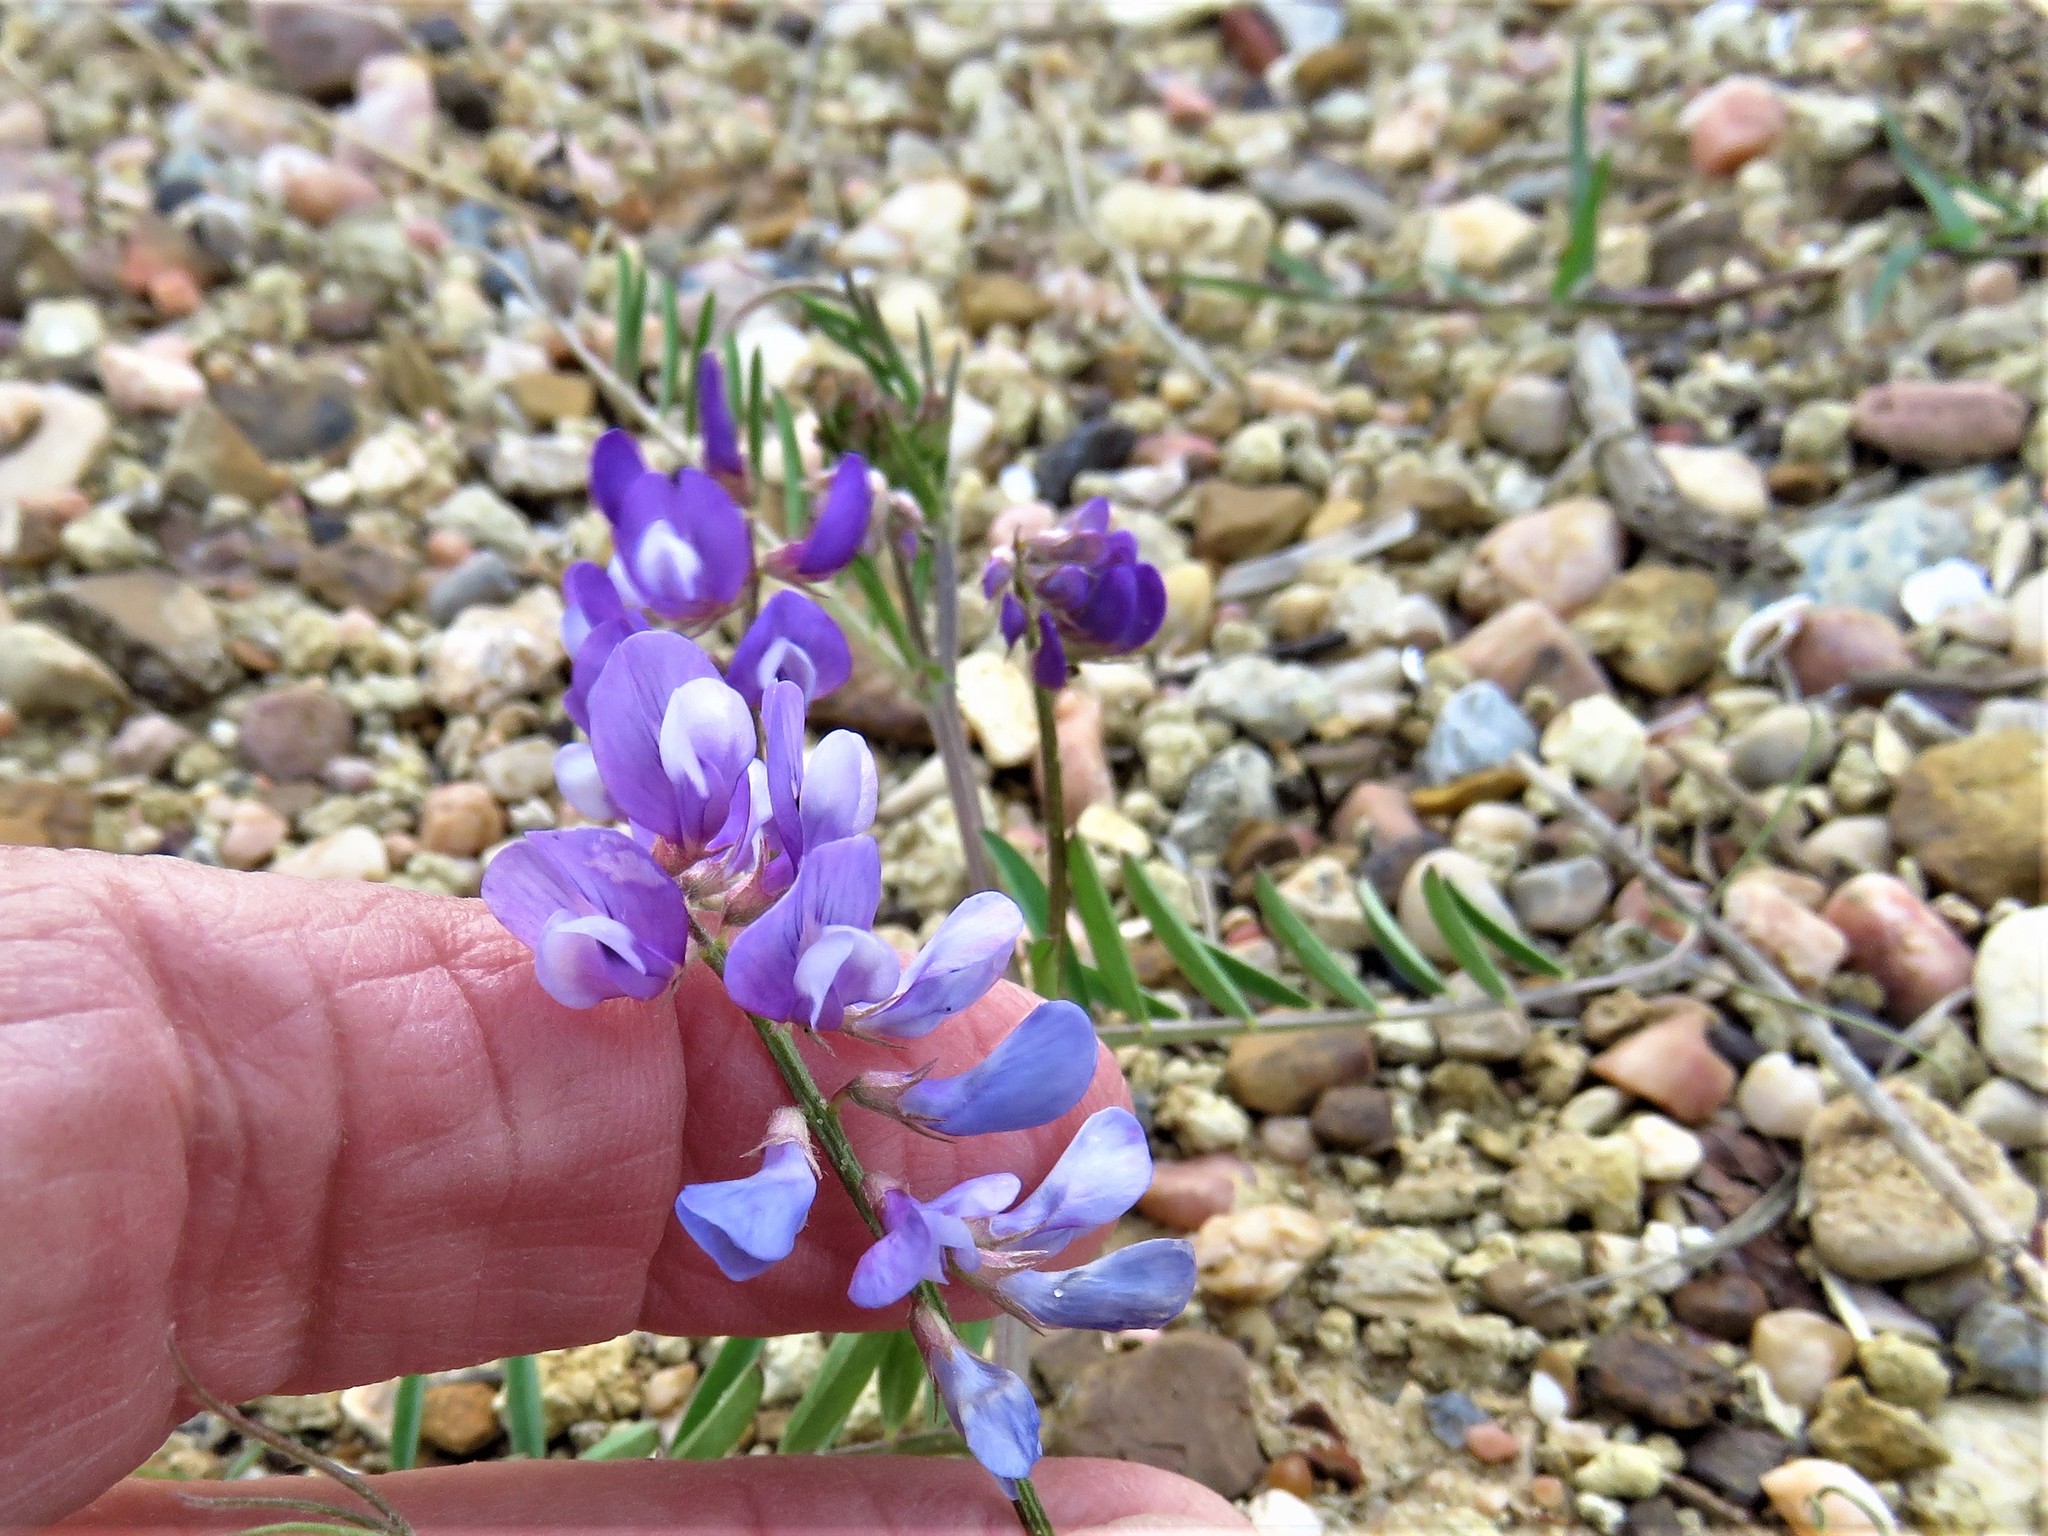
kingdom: Plantae
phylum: Tracheophyta
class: Magnoliopsida
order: Fabales
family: Fabaceae
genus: Vicia
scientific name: Vicia ludoviciana
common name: Louisiana vetch
